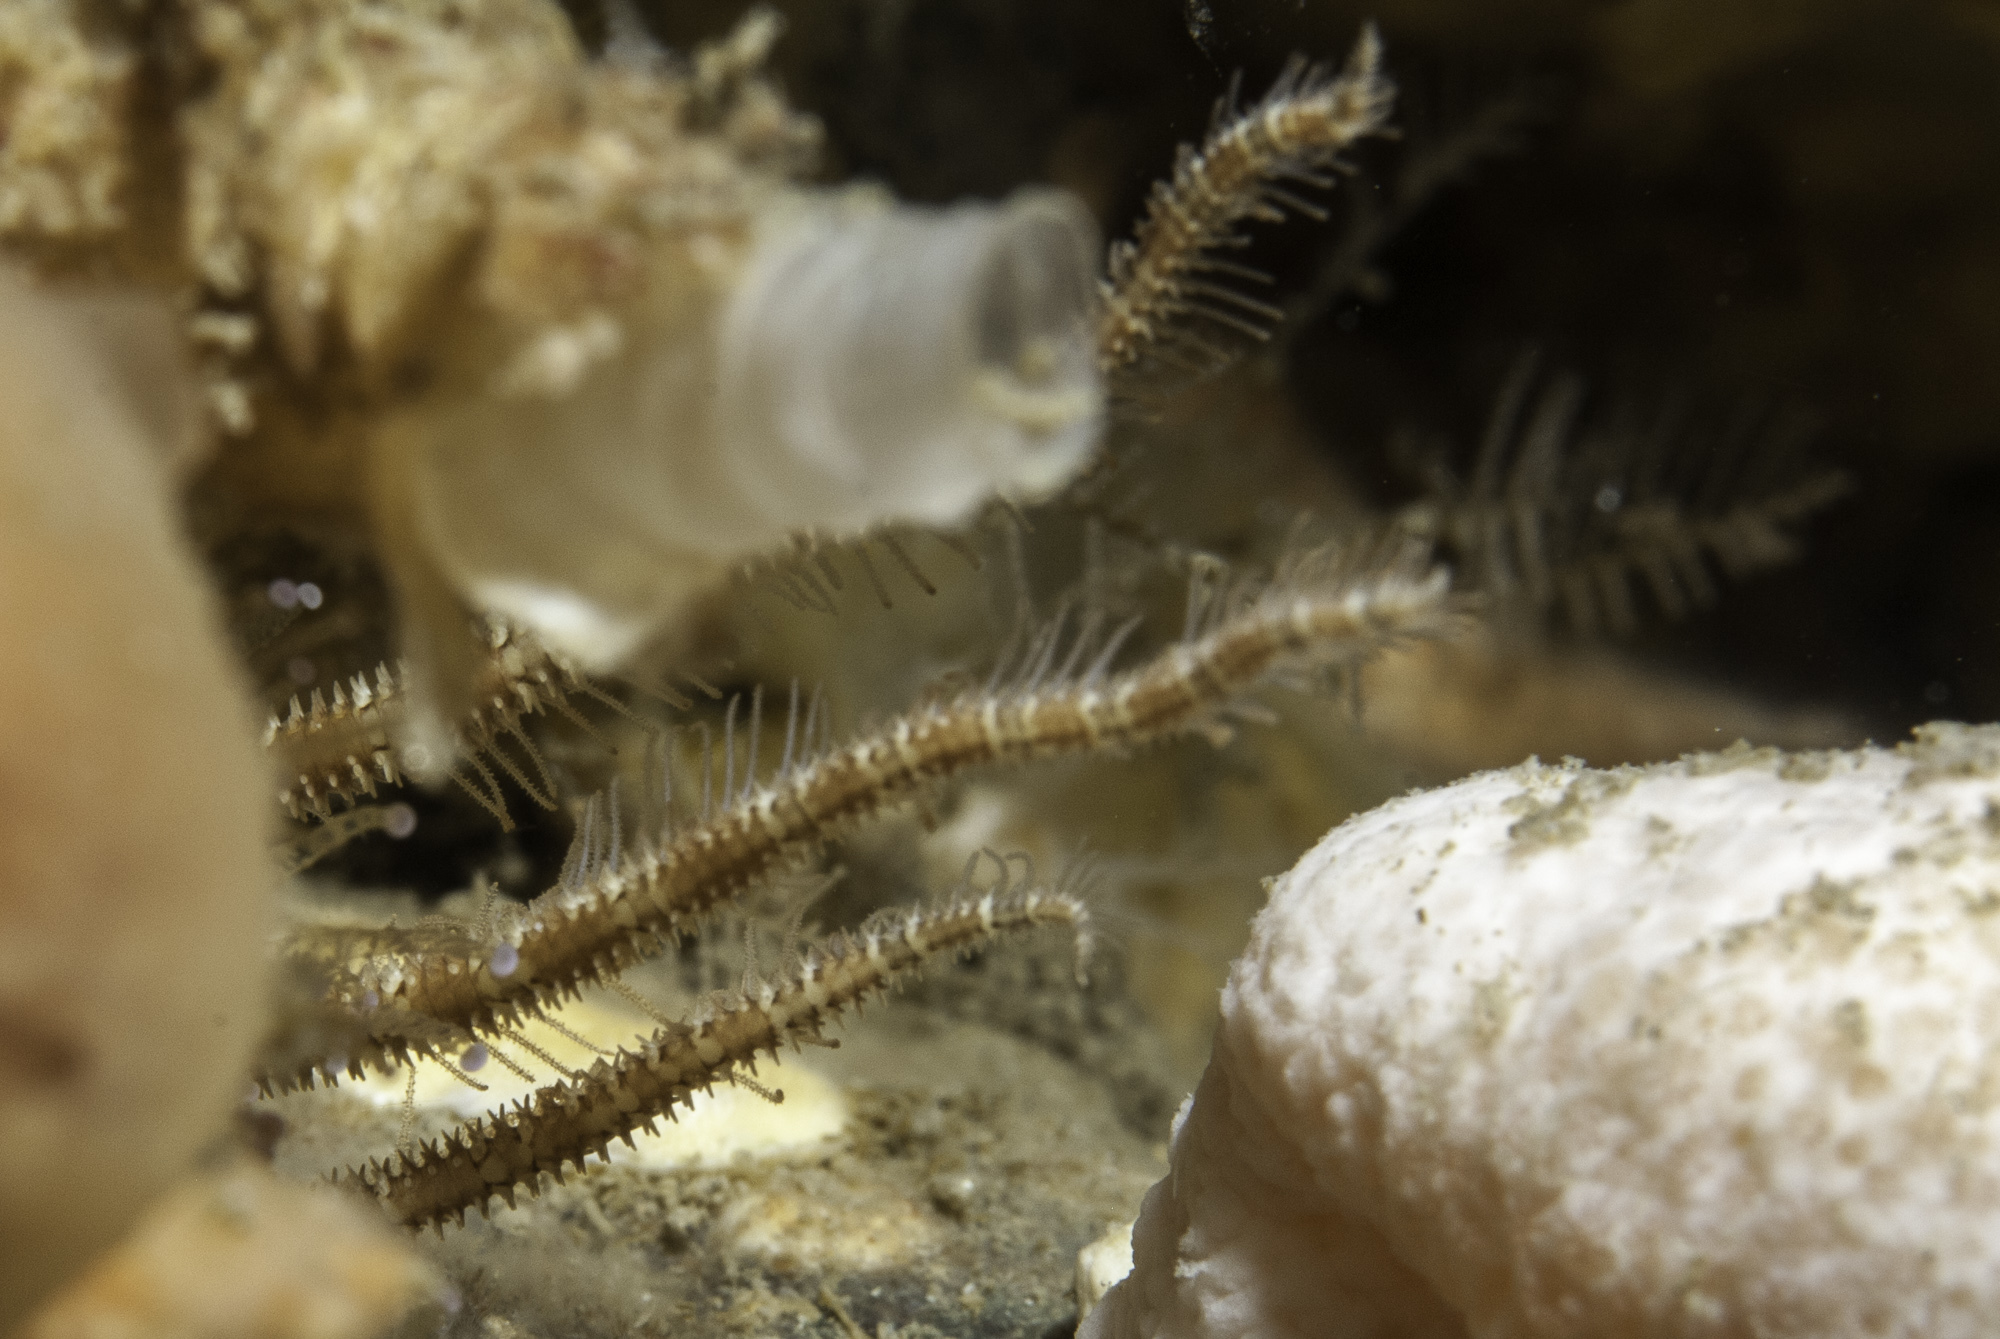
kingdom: Animalia
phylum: Echinodermata
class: Ophiuroidea
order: Amphilepidida
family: Ophiopsilidae
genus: Ophiopsila
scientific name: Ophiopsila aranea
